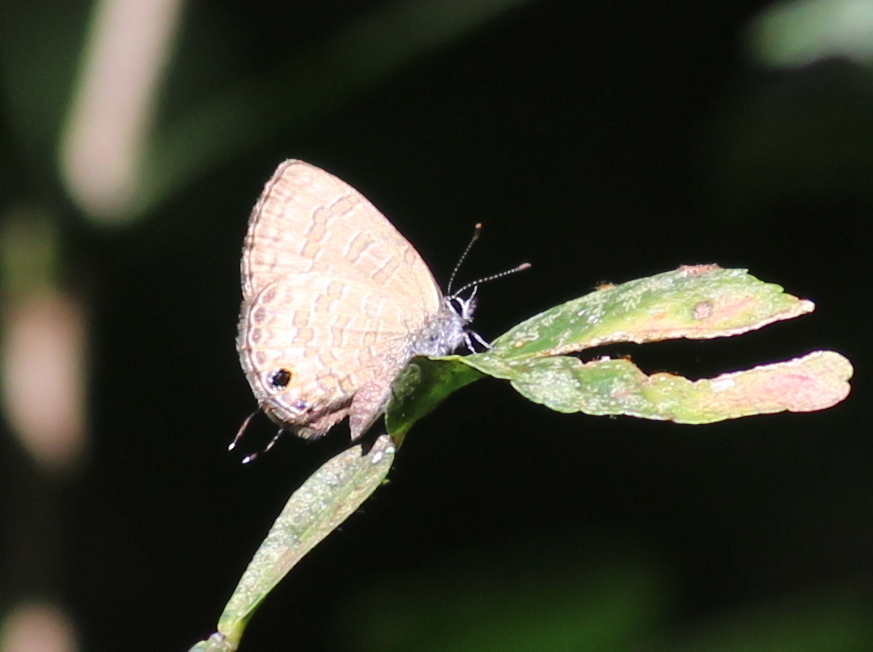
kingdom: Animalia
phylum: Arthropoda
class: Insecta
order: Lepidoptera
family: Lycaenidae
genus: Prosotas
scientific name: Prosotas nora
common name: Common line blue
